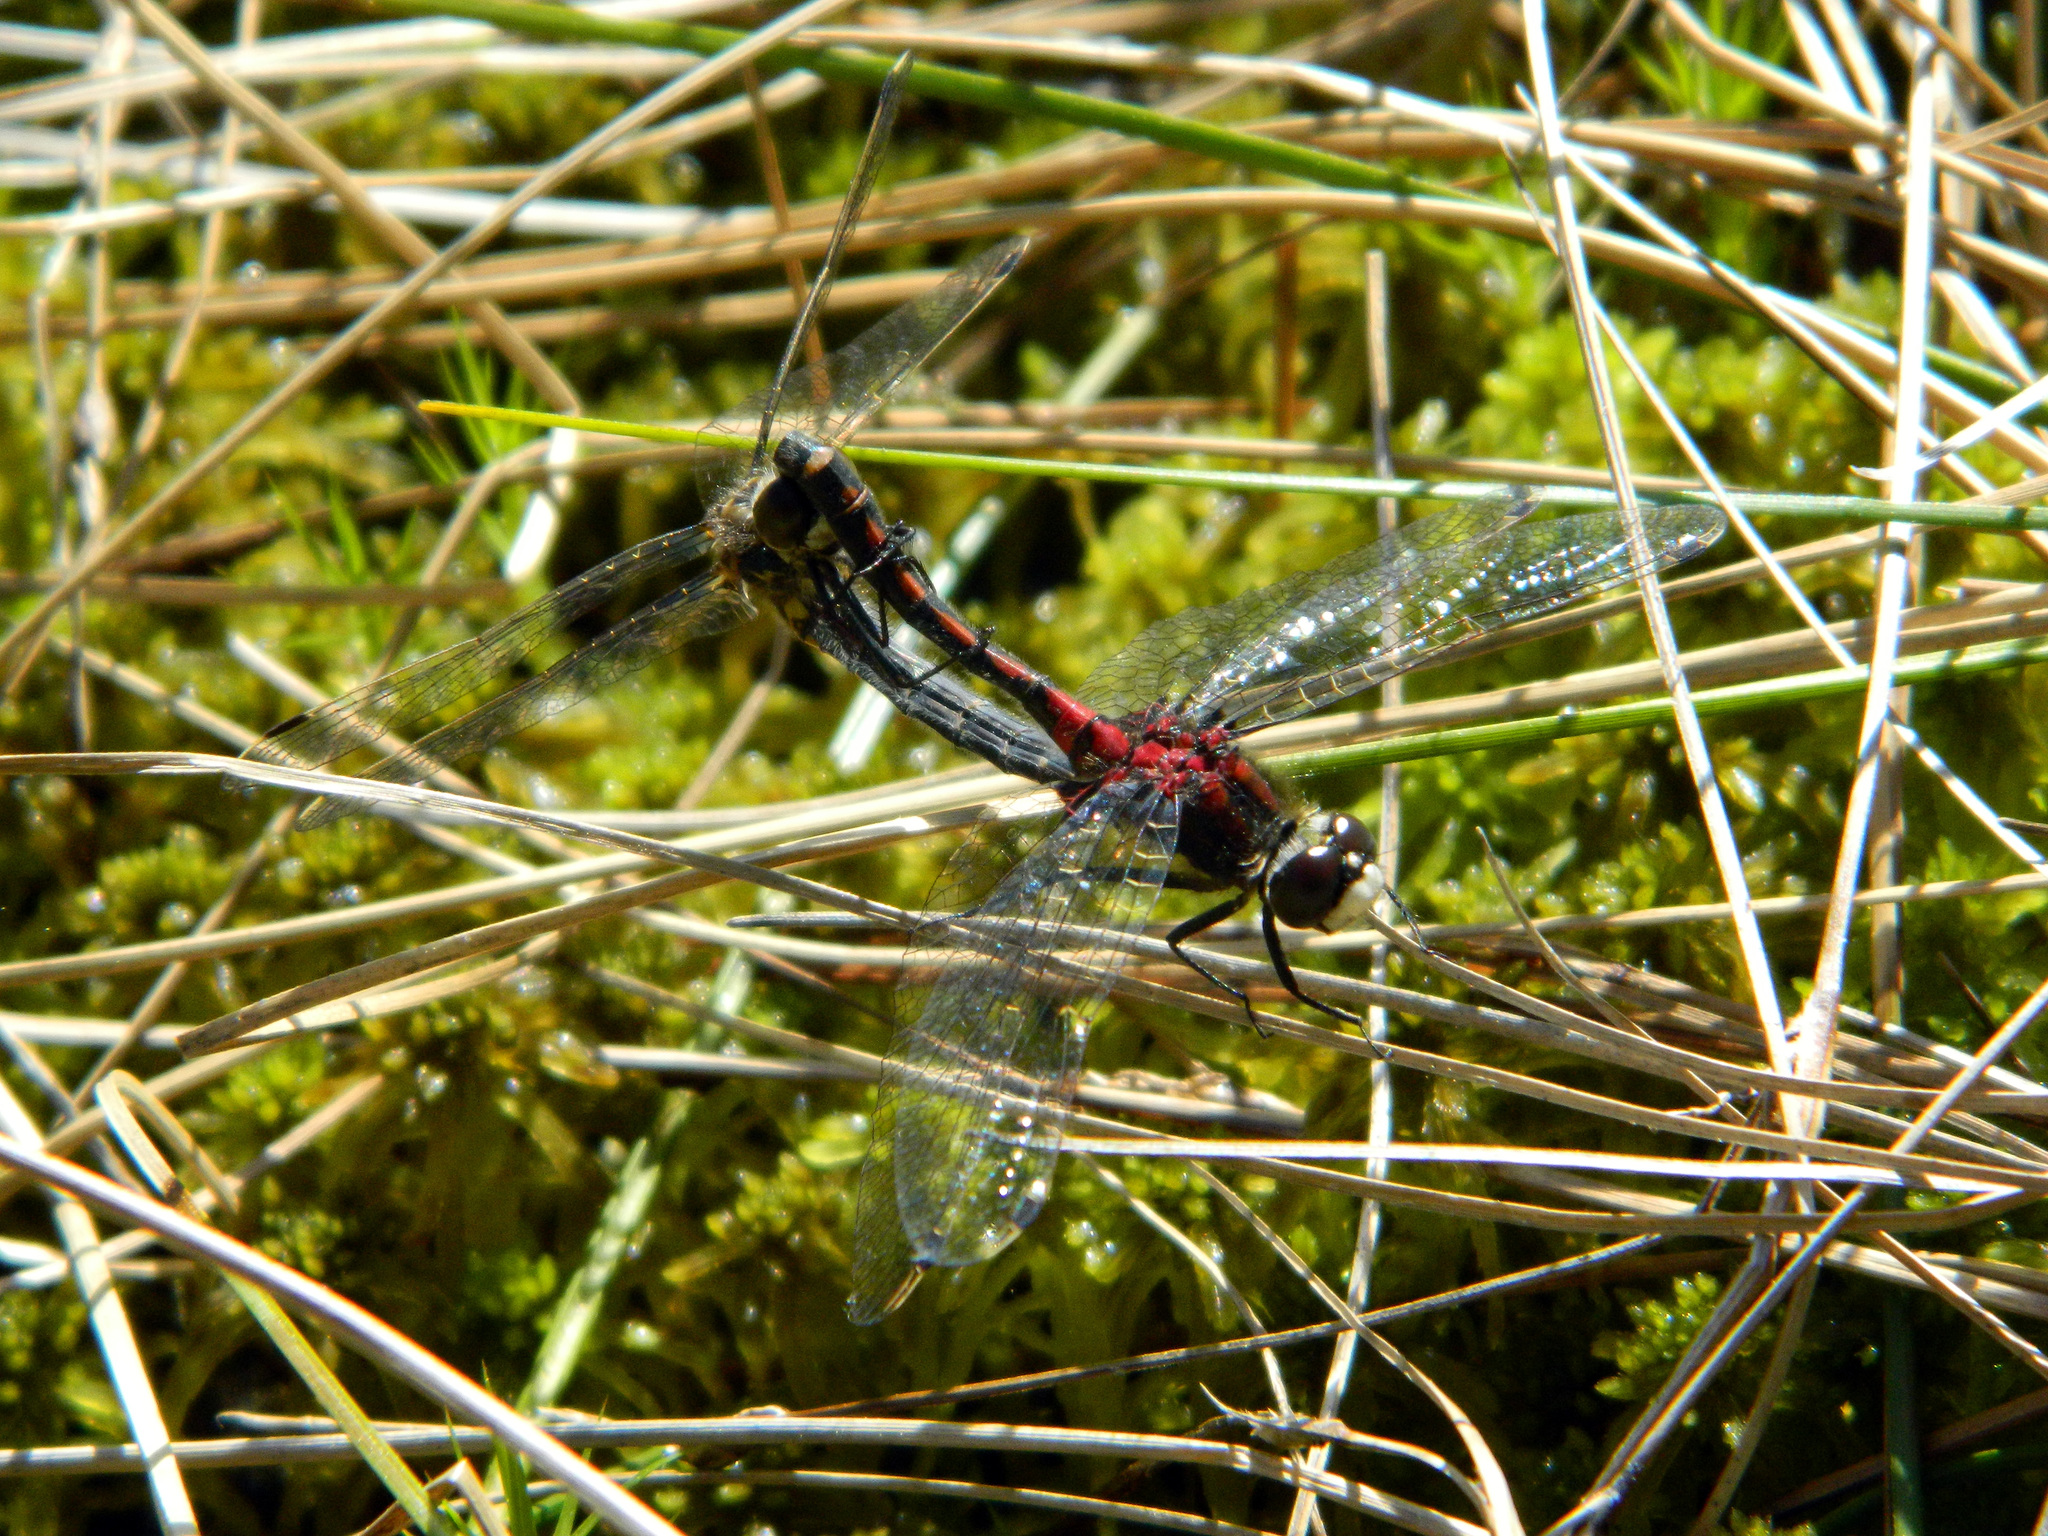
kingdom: Animalia
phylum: Arthropoda
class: Insecta
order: Odonata
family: Libellulidae
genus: Leucorrhinia
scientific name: Leucorrhinia hudsonica
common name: Hudsonian whiteface
